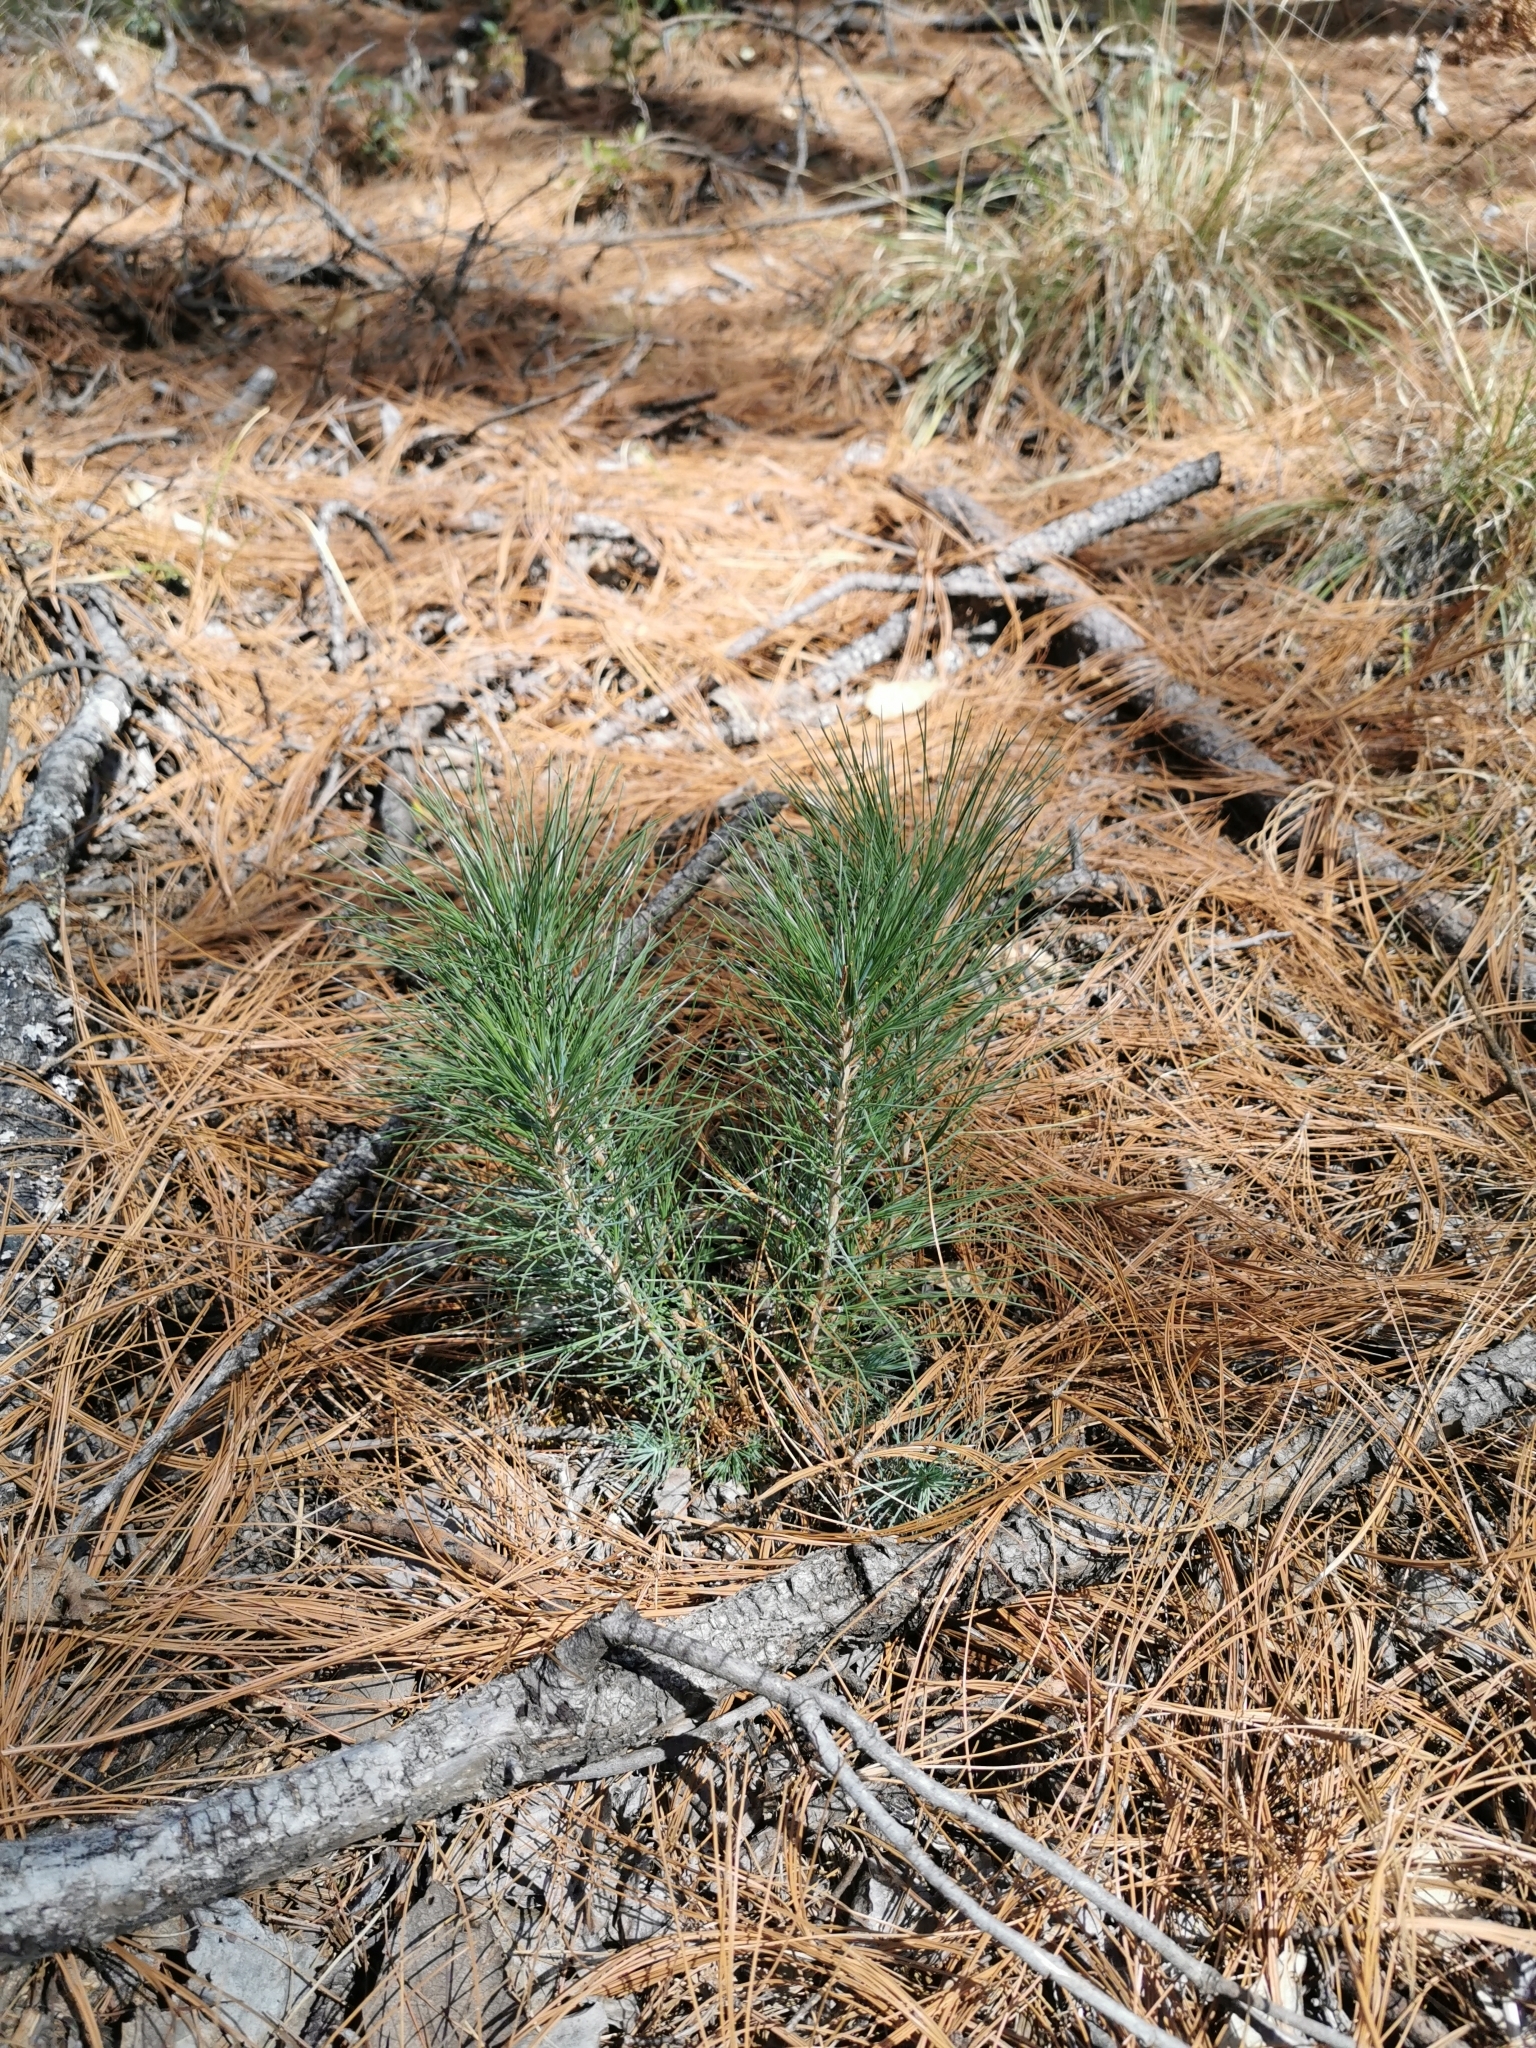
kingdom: Plantae
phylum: Tracheophyta
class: Pinopsida
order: Pinales
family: Pinaceae
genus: Pinus
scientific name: Pinus leiophylla
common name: Chihuahua pine
